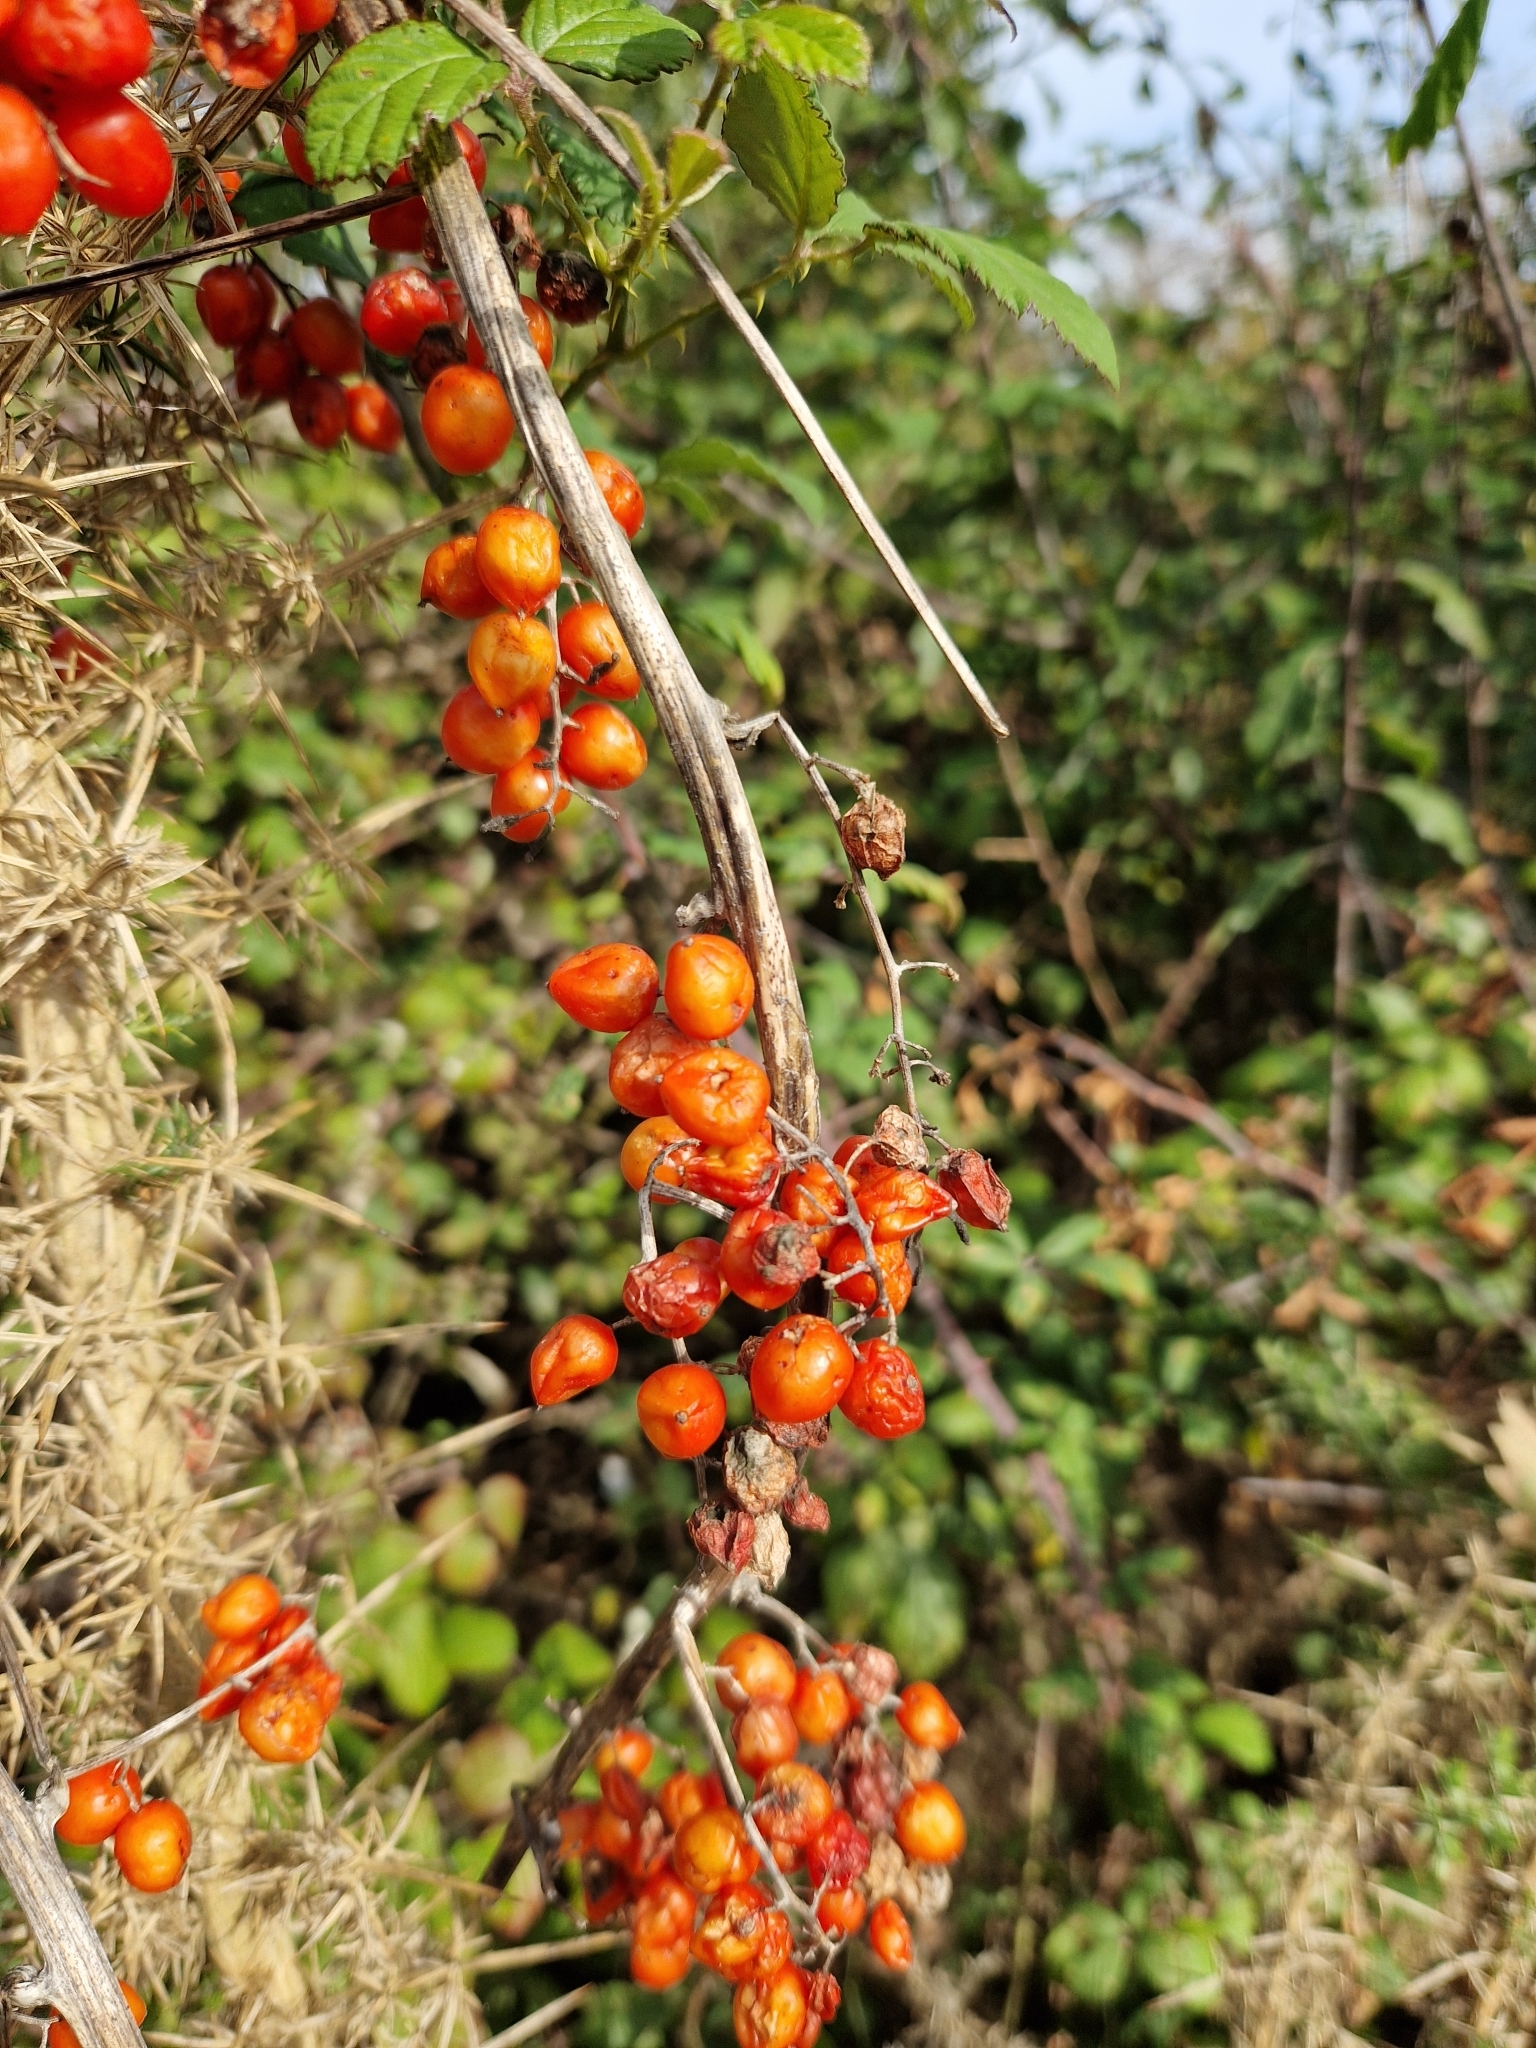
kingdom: Plantae
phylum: Tracheophyta
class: Liliopsida
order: Dioscoreales
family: Dioscoreaceae
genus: Dioscorea
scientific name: Dioscorea communis
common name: Black-bindweed
